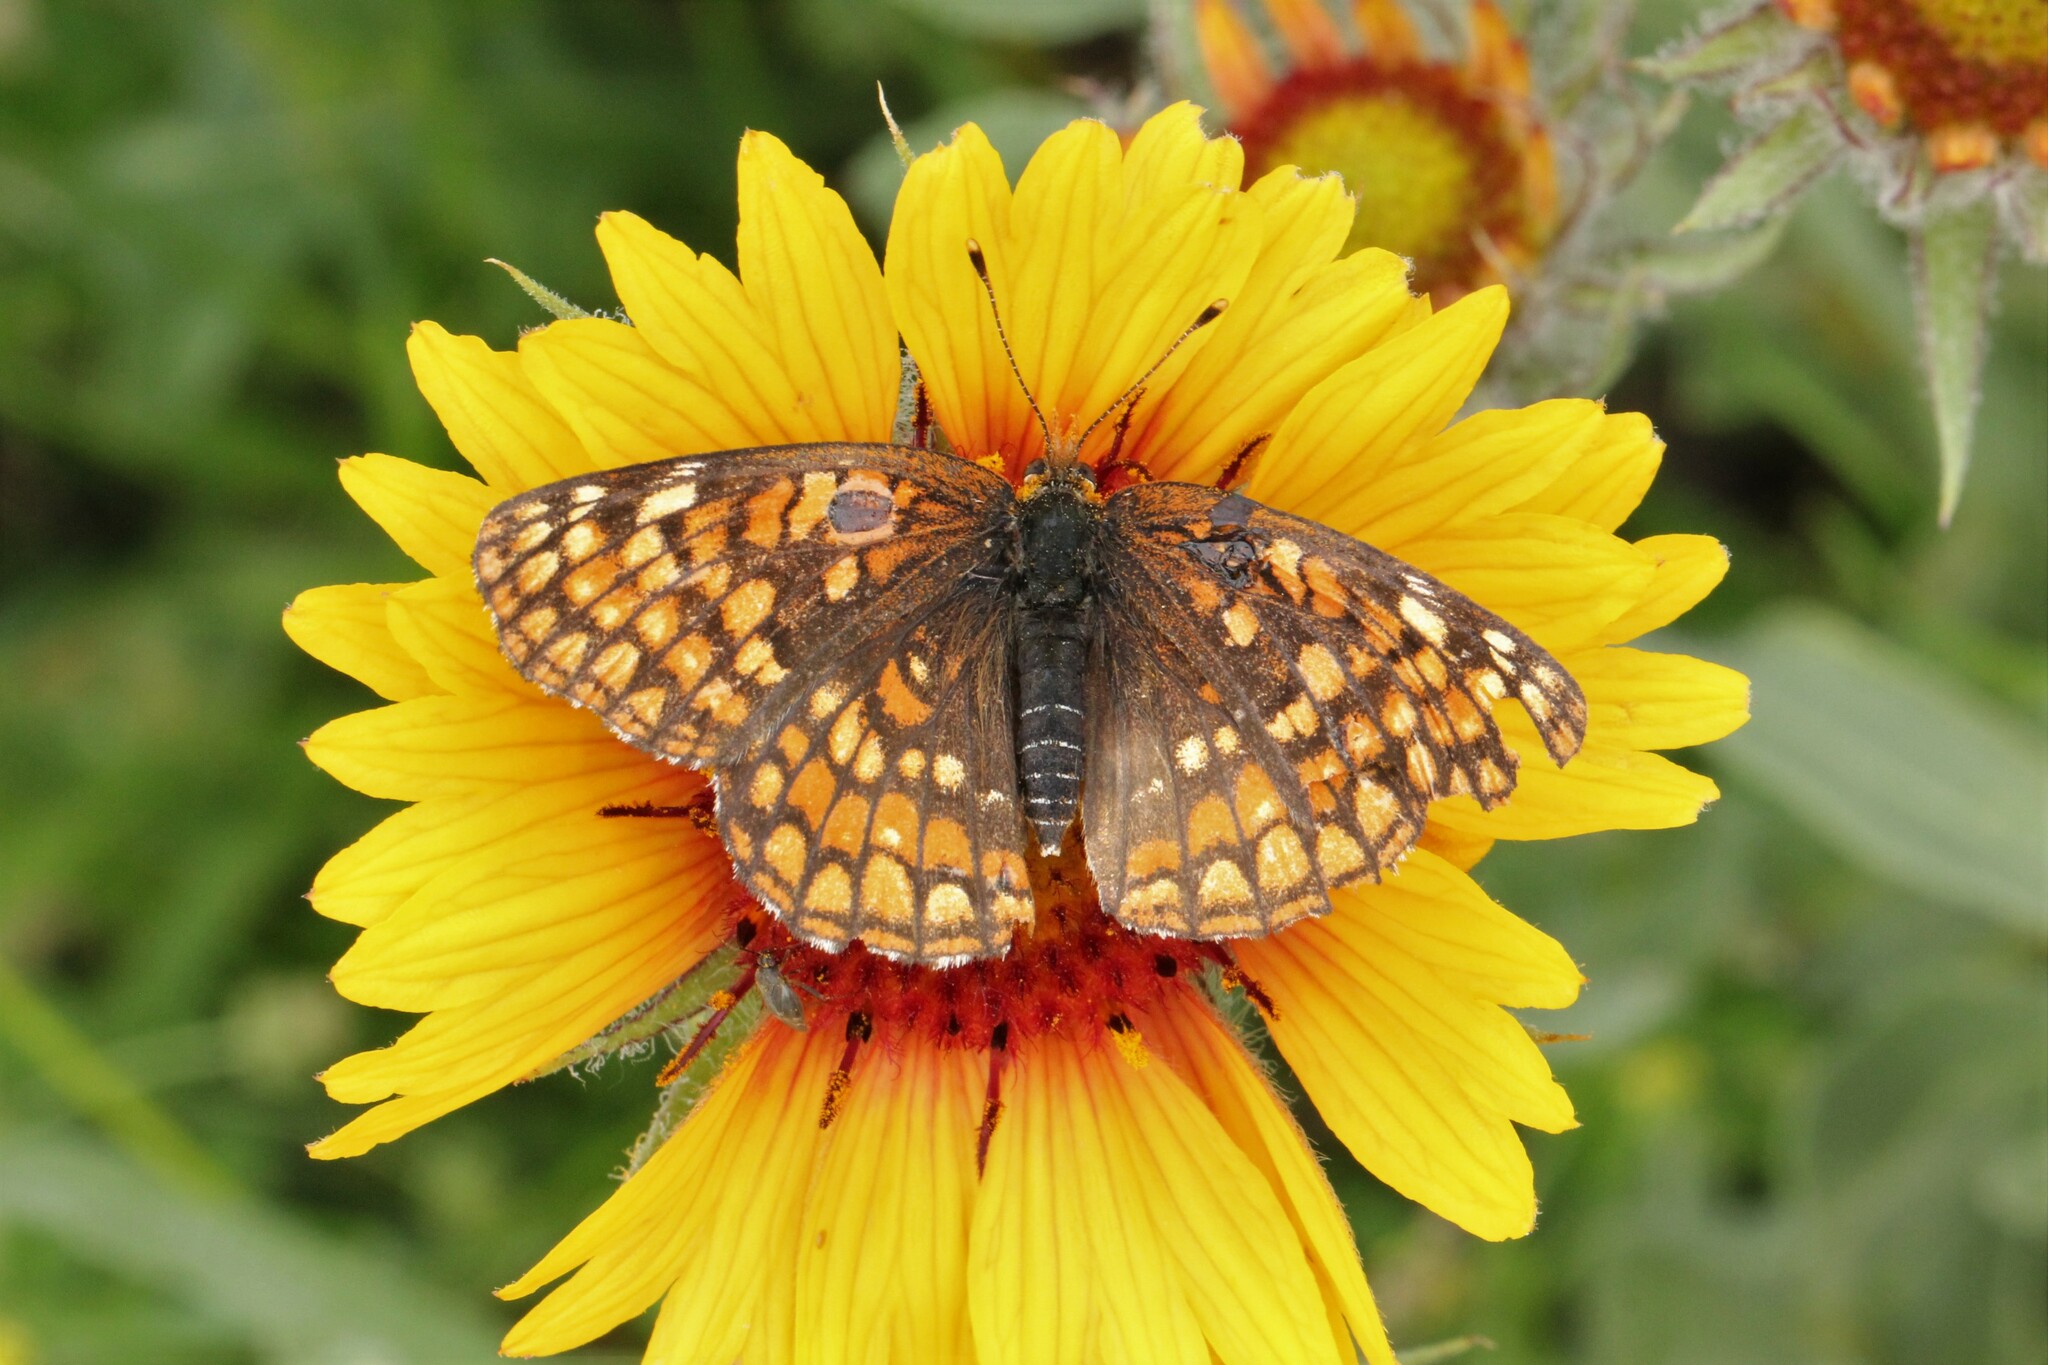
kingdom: Animalia
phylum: Arthropoda
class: Insecta
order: Lepidoptera
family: Nymphalidae
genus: Chlosyne
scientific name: Chlosyne palla
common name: Northern checkerspot
